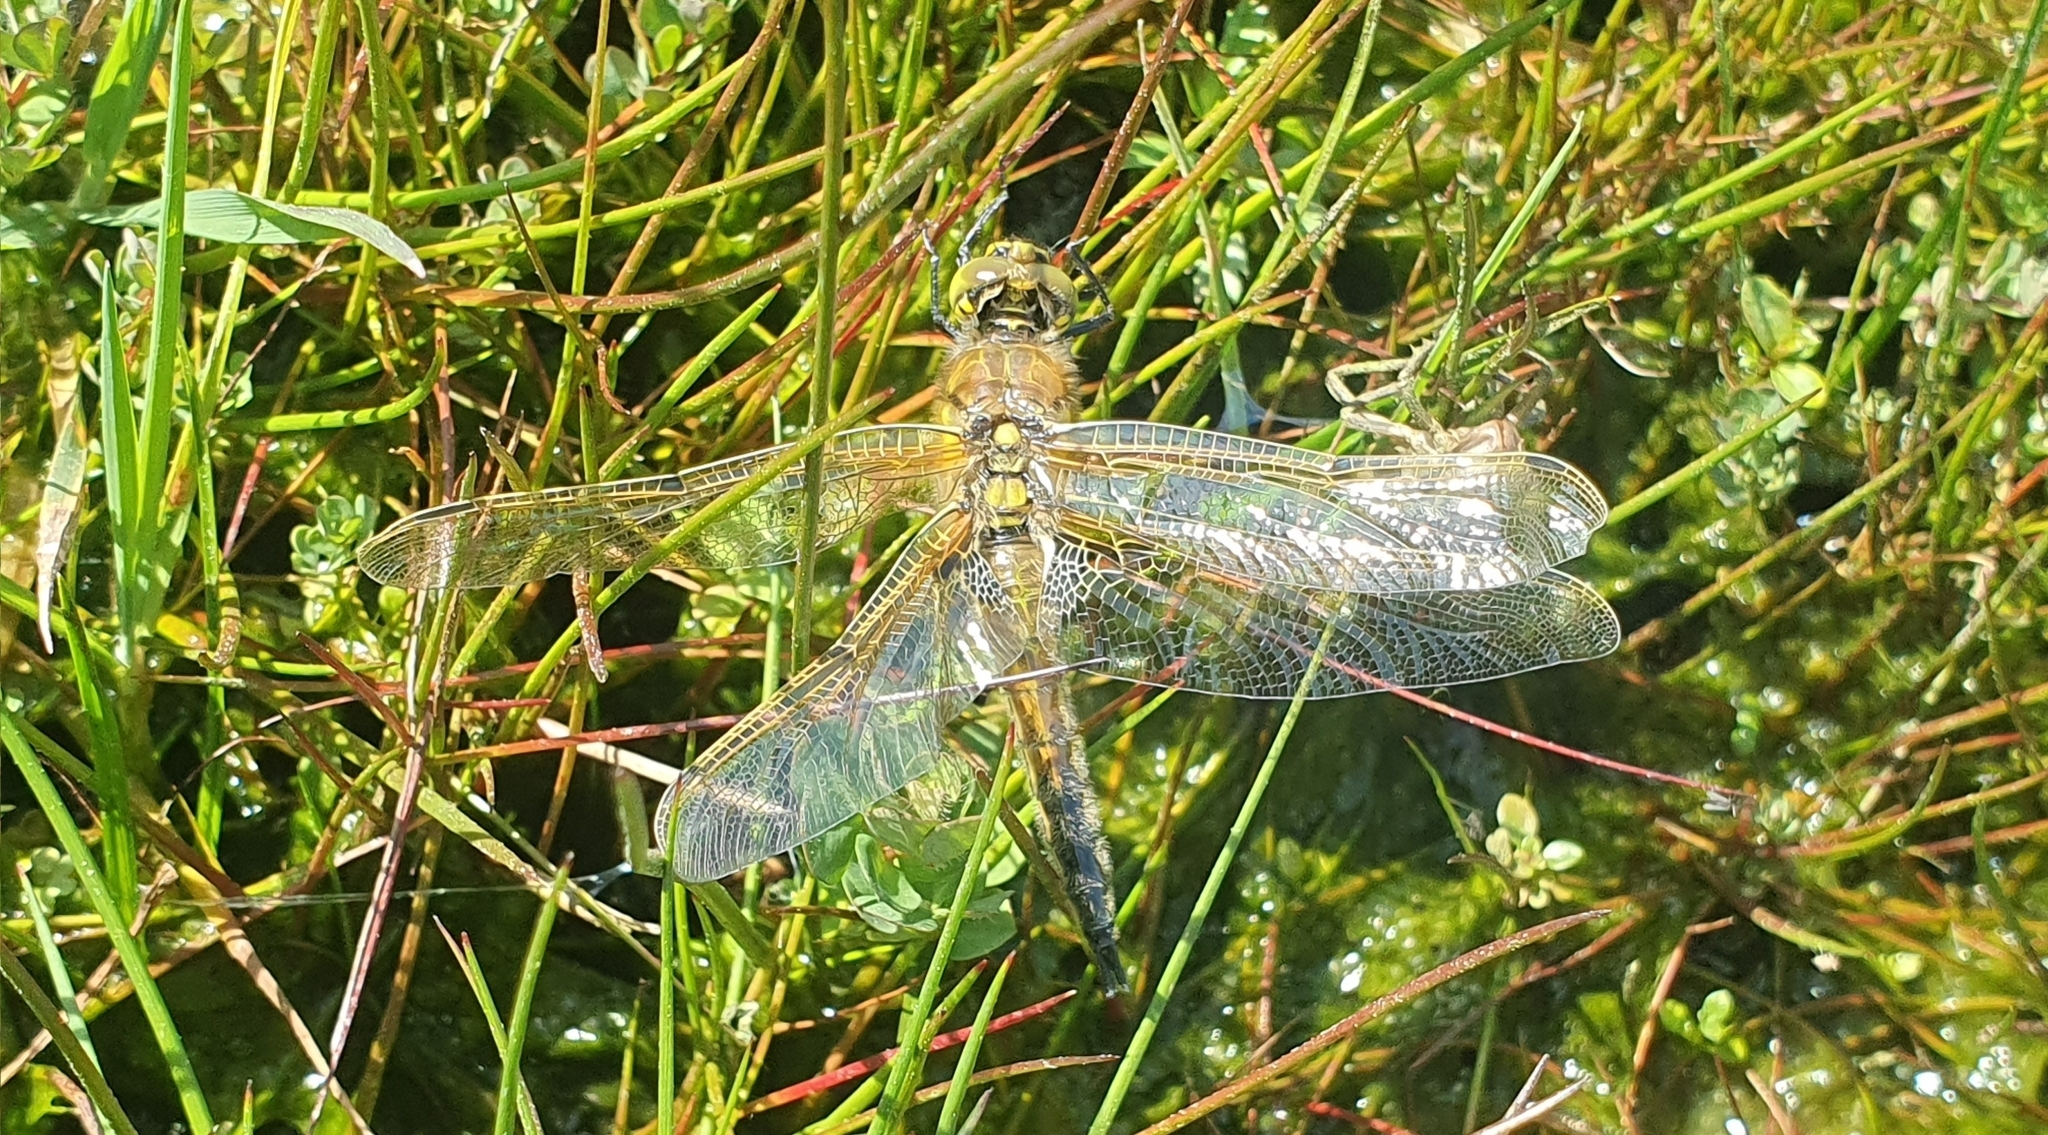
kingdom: Animalia
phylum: Arthropoda
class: Insecta
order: Odonata
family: Libellulidae
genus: Libellula
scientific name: Libellula quadrimaculata
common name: Four-spotted chaser
